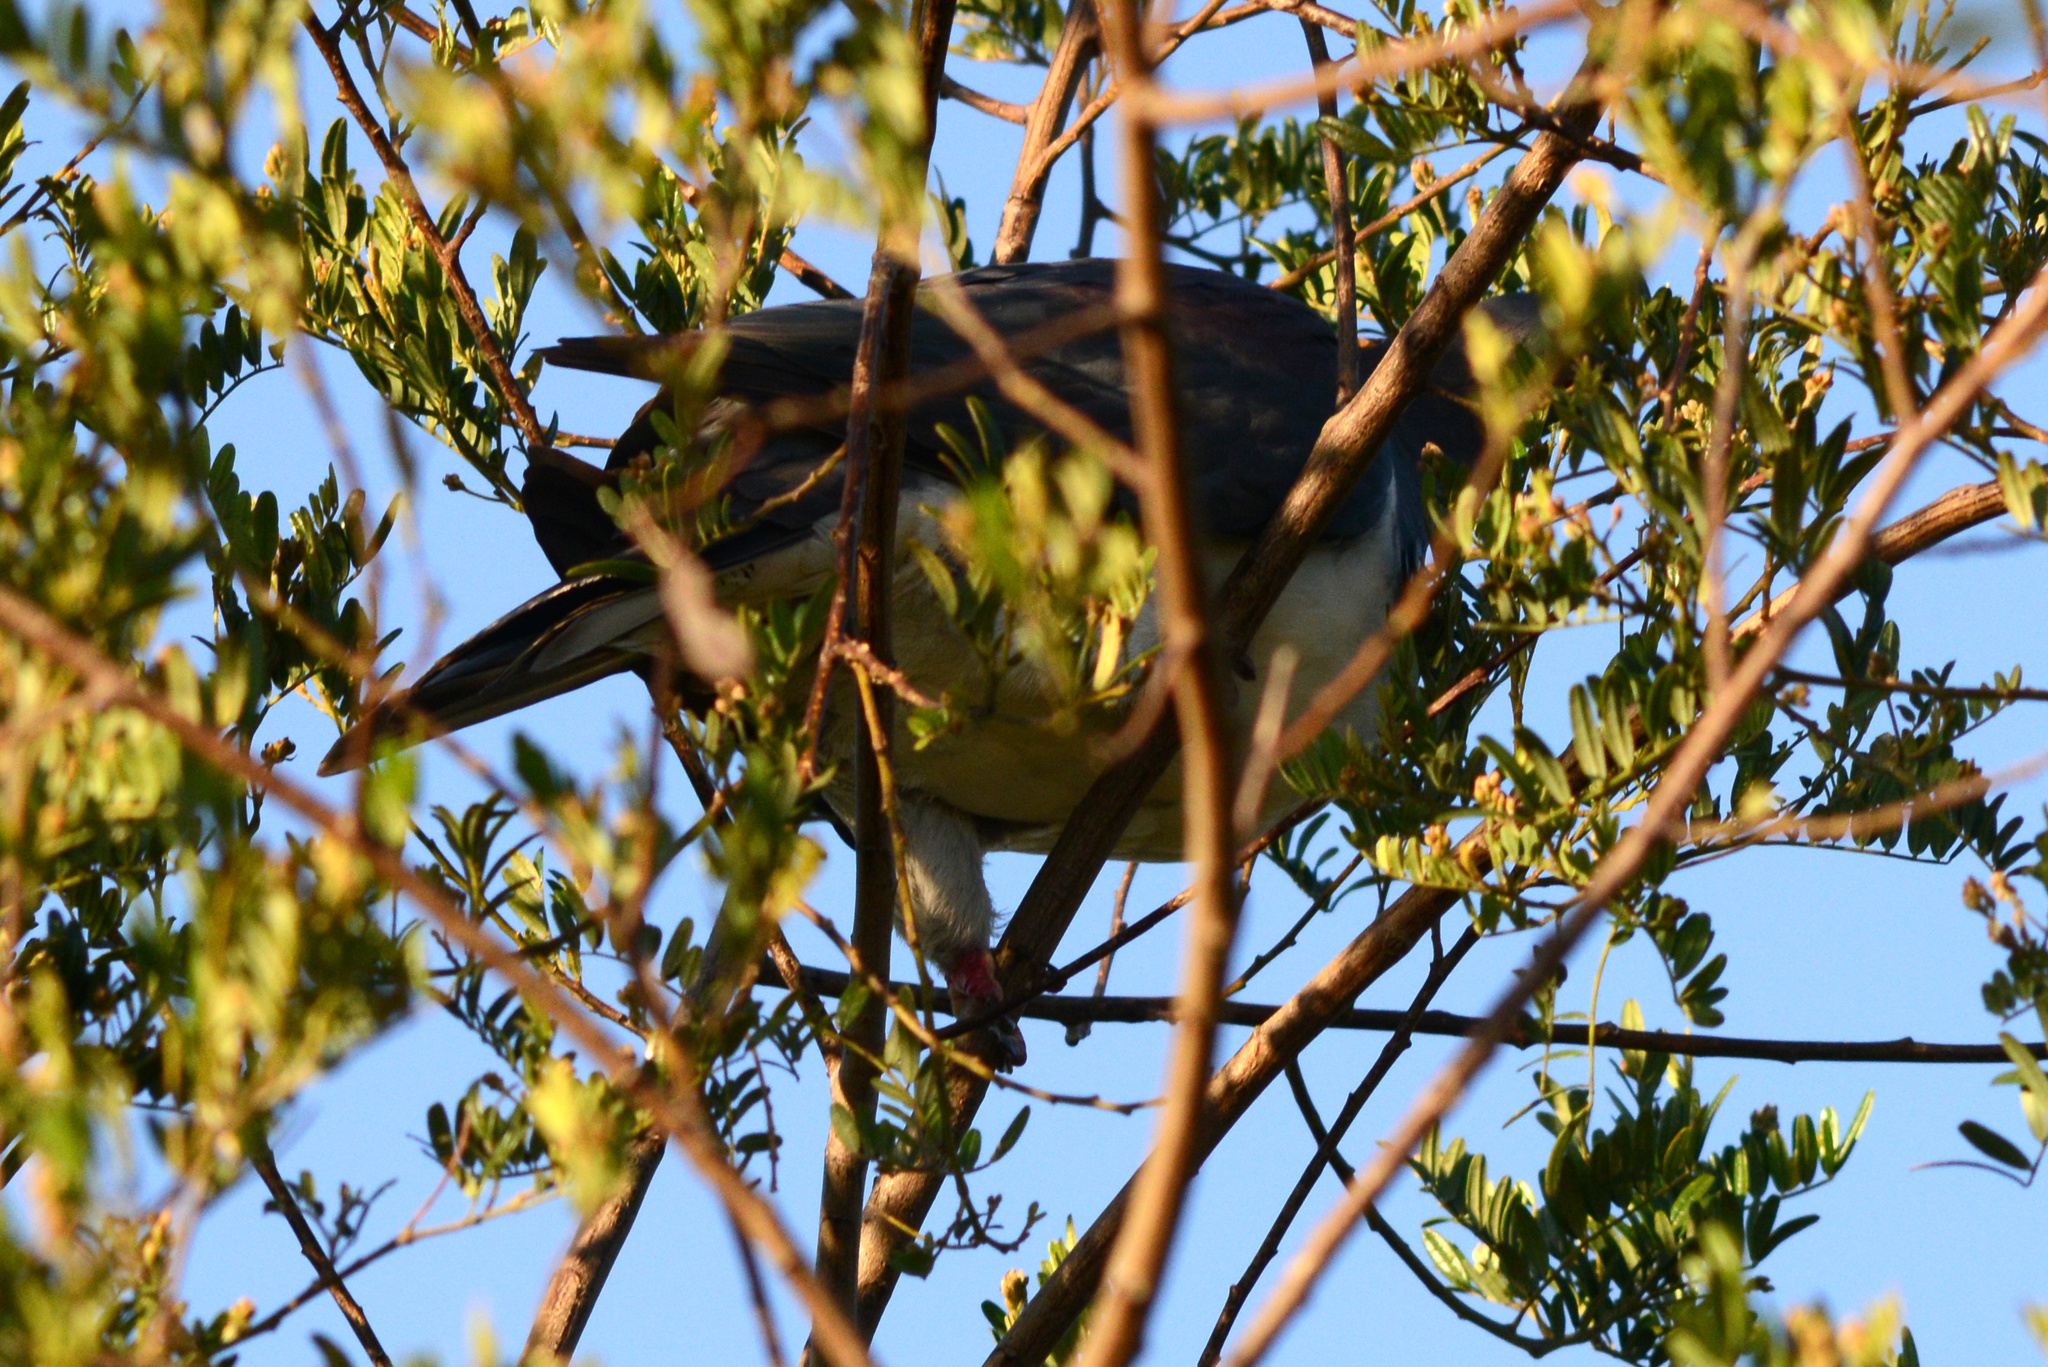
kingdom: Animalia
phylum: Chordata
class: Aves
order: Columbiformes
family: Columbidae
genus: Hemiphaga
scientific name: Hemiphaga novaeseelandiae
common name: New zealand pigeon
